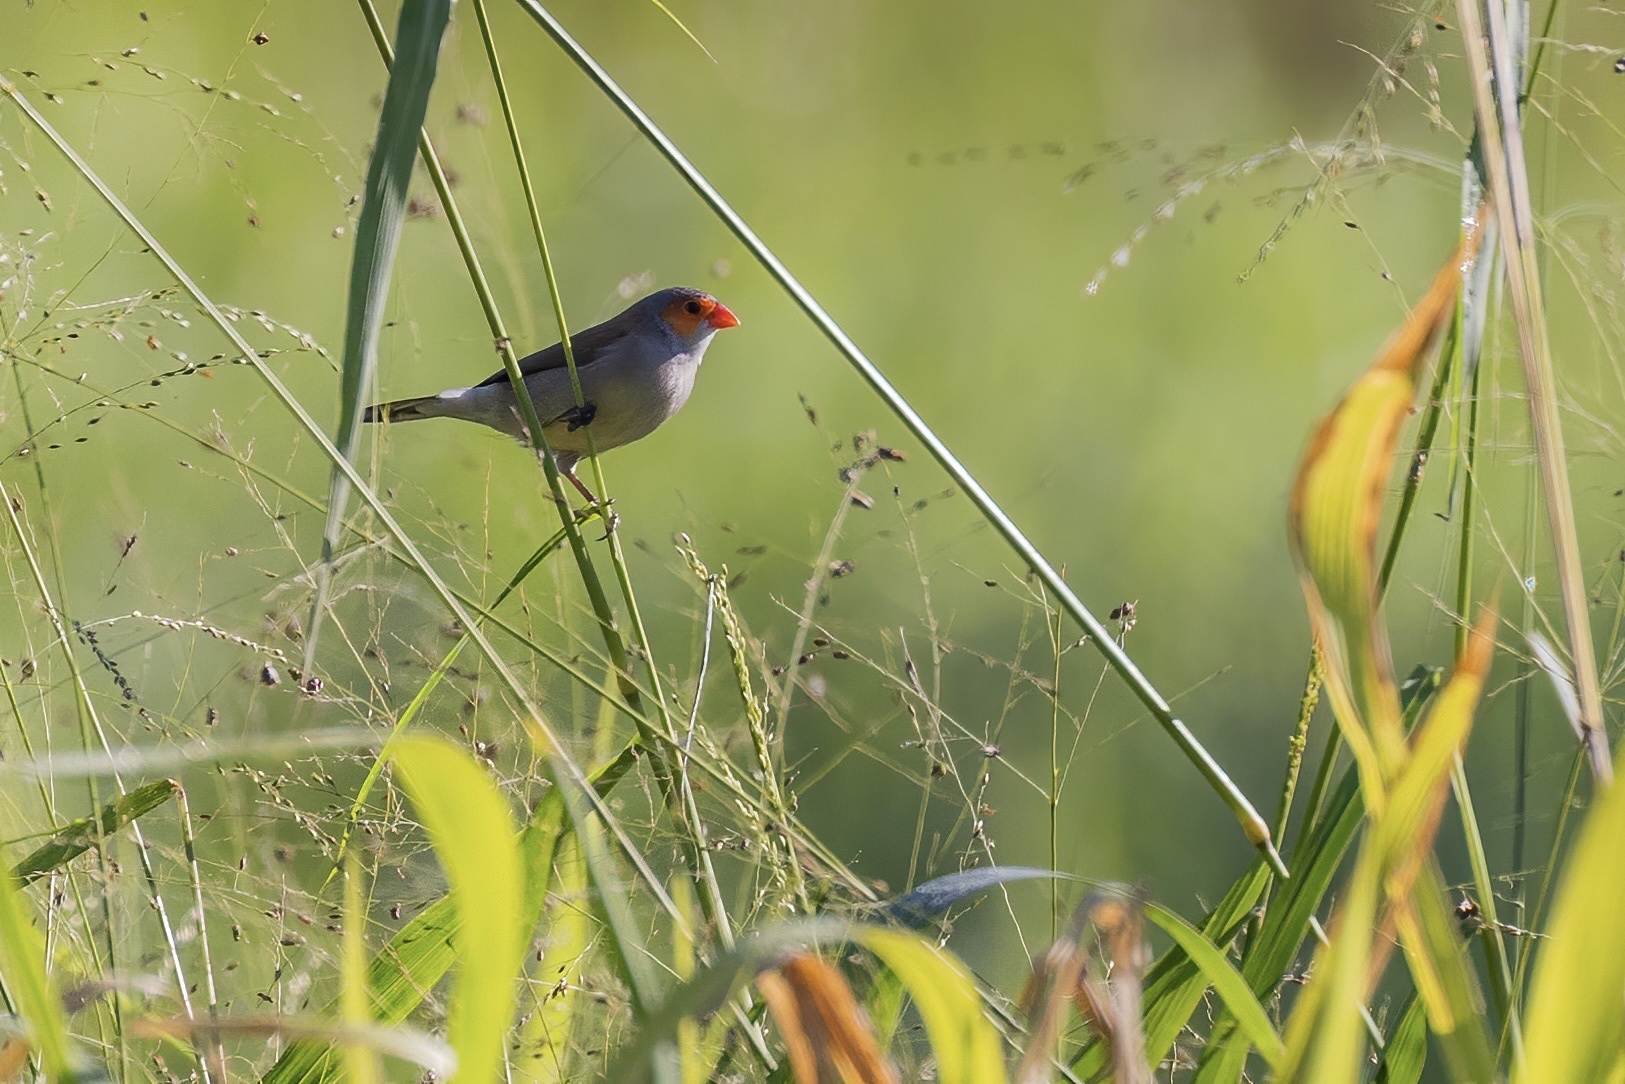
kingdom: Animalia
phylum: Chordata
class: Aves
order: Passeriformes
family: Estrildidae
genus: Estrilda
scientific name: Estrilda melpoda
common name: Orange-cheeked waxbill
